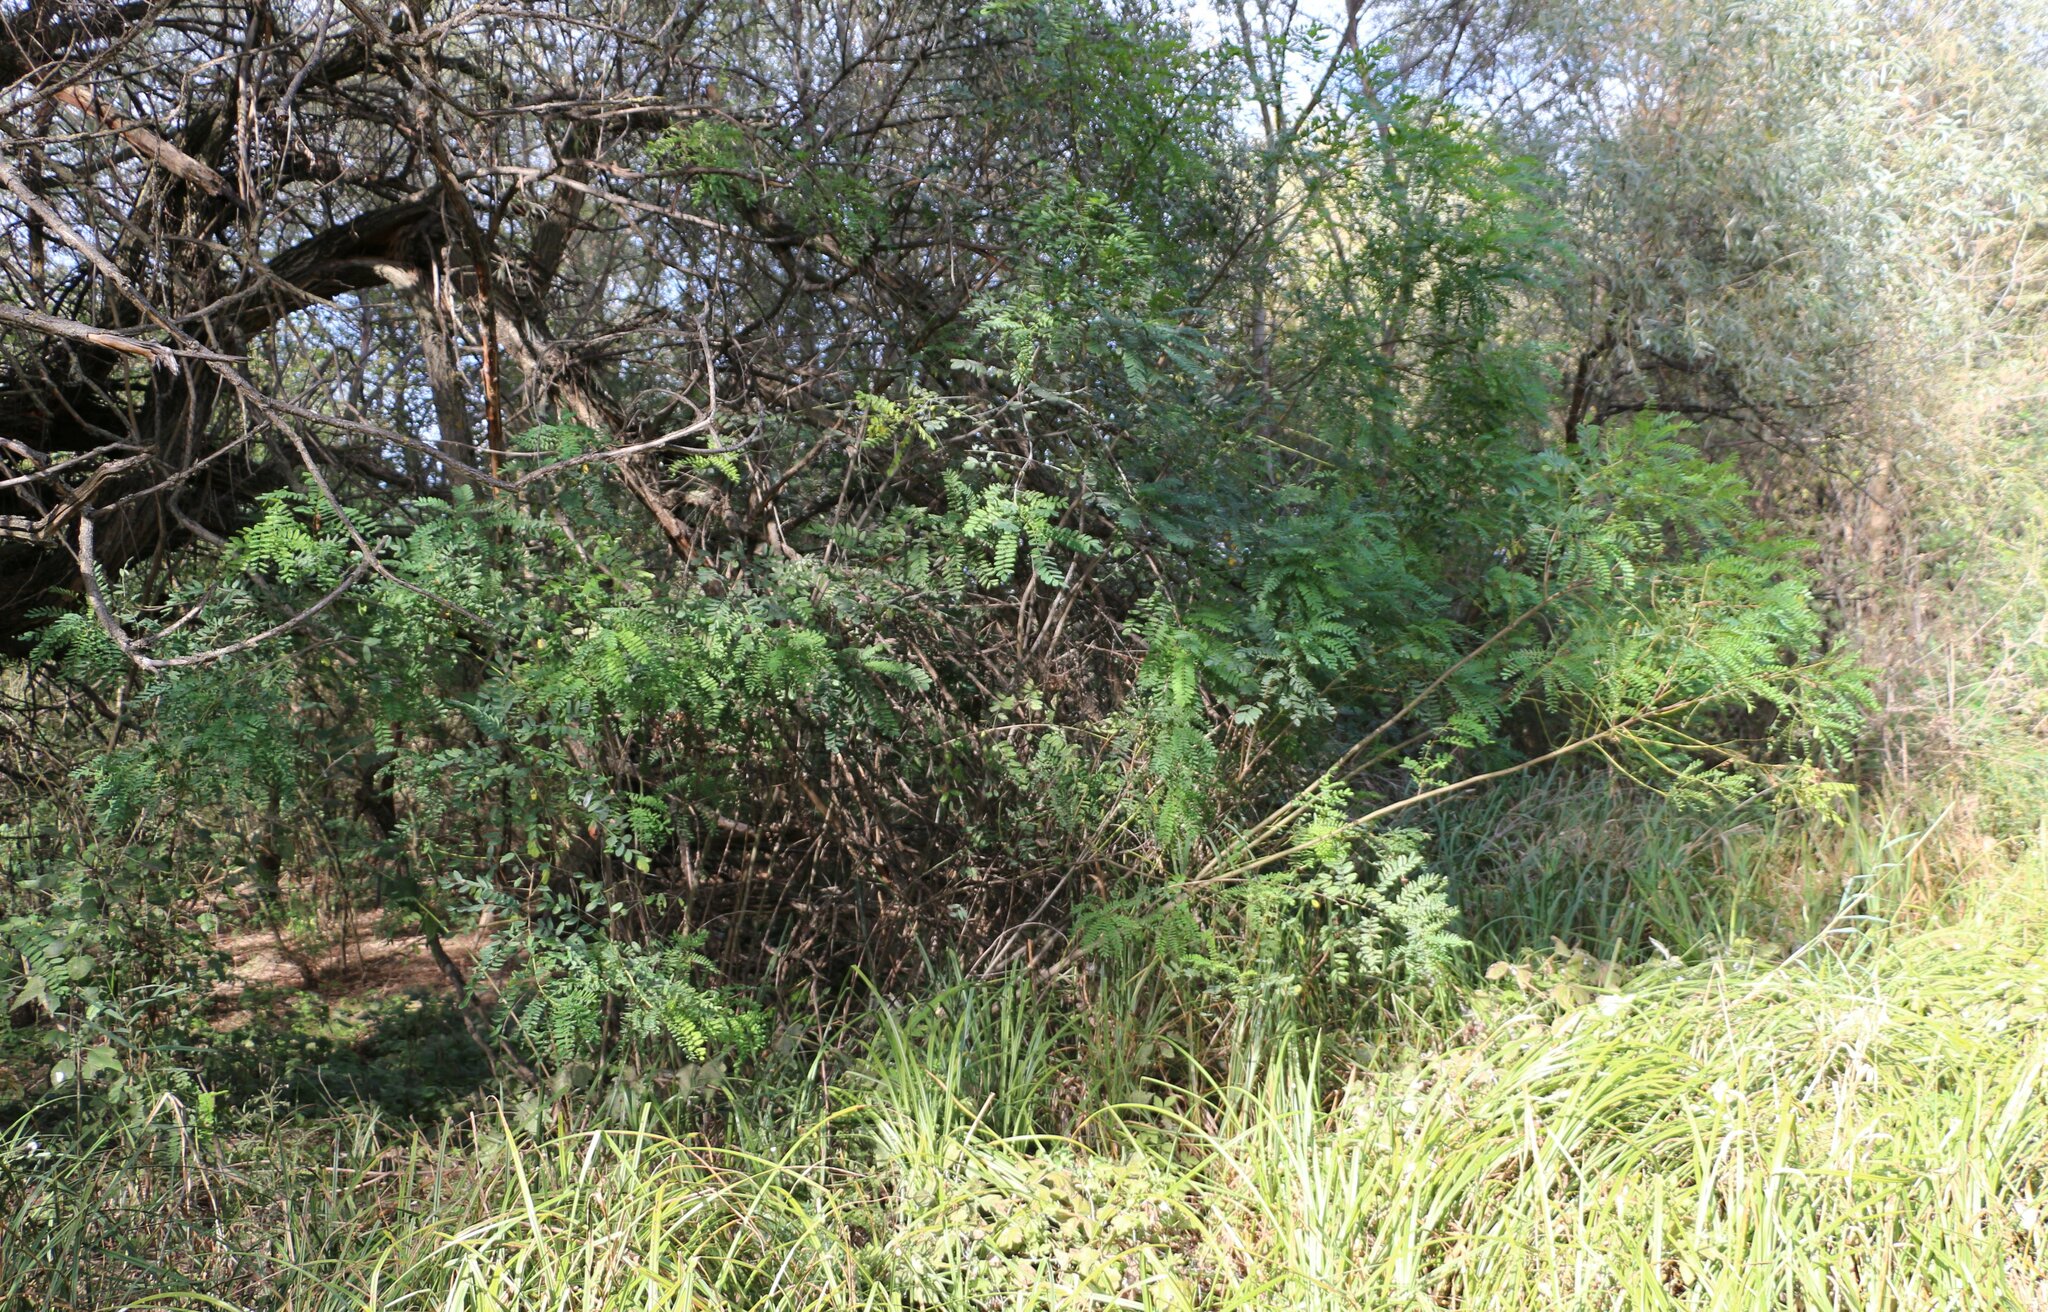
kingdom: Plantae
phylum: Tracheophyta
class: Magnoliopsida
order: Fabales
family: Fabaceae
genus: Amorpha
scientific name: Amorpha fruticosa
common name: False indigo
